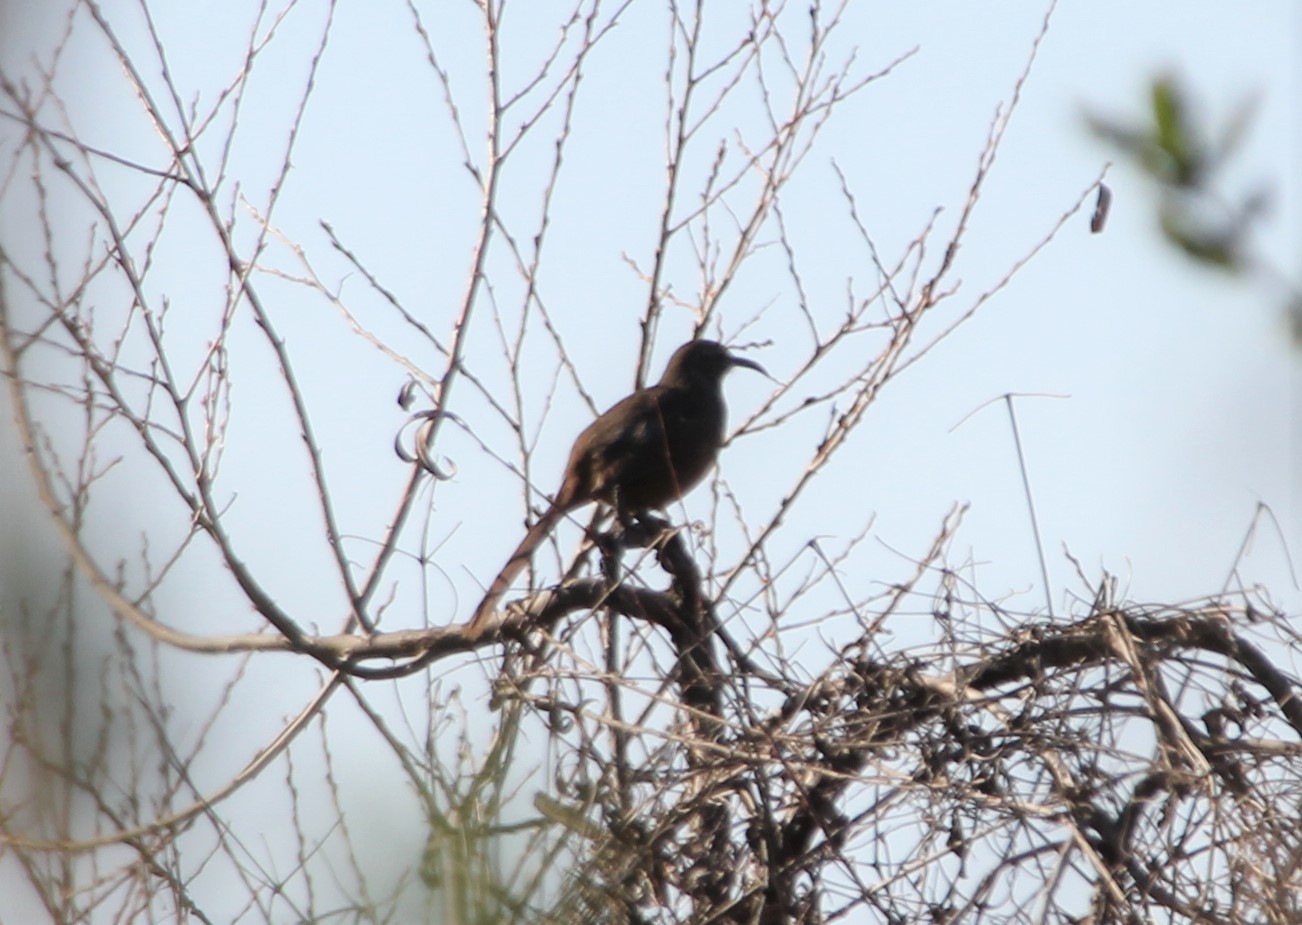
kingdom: Animalia
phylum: Chordata
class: Aves
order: Passeriformes
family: Mimidae
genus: Toxostoma
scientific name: Toxostoma redivivum
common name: California thrasher
